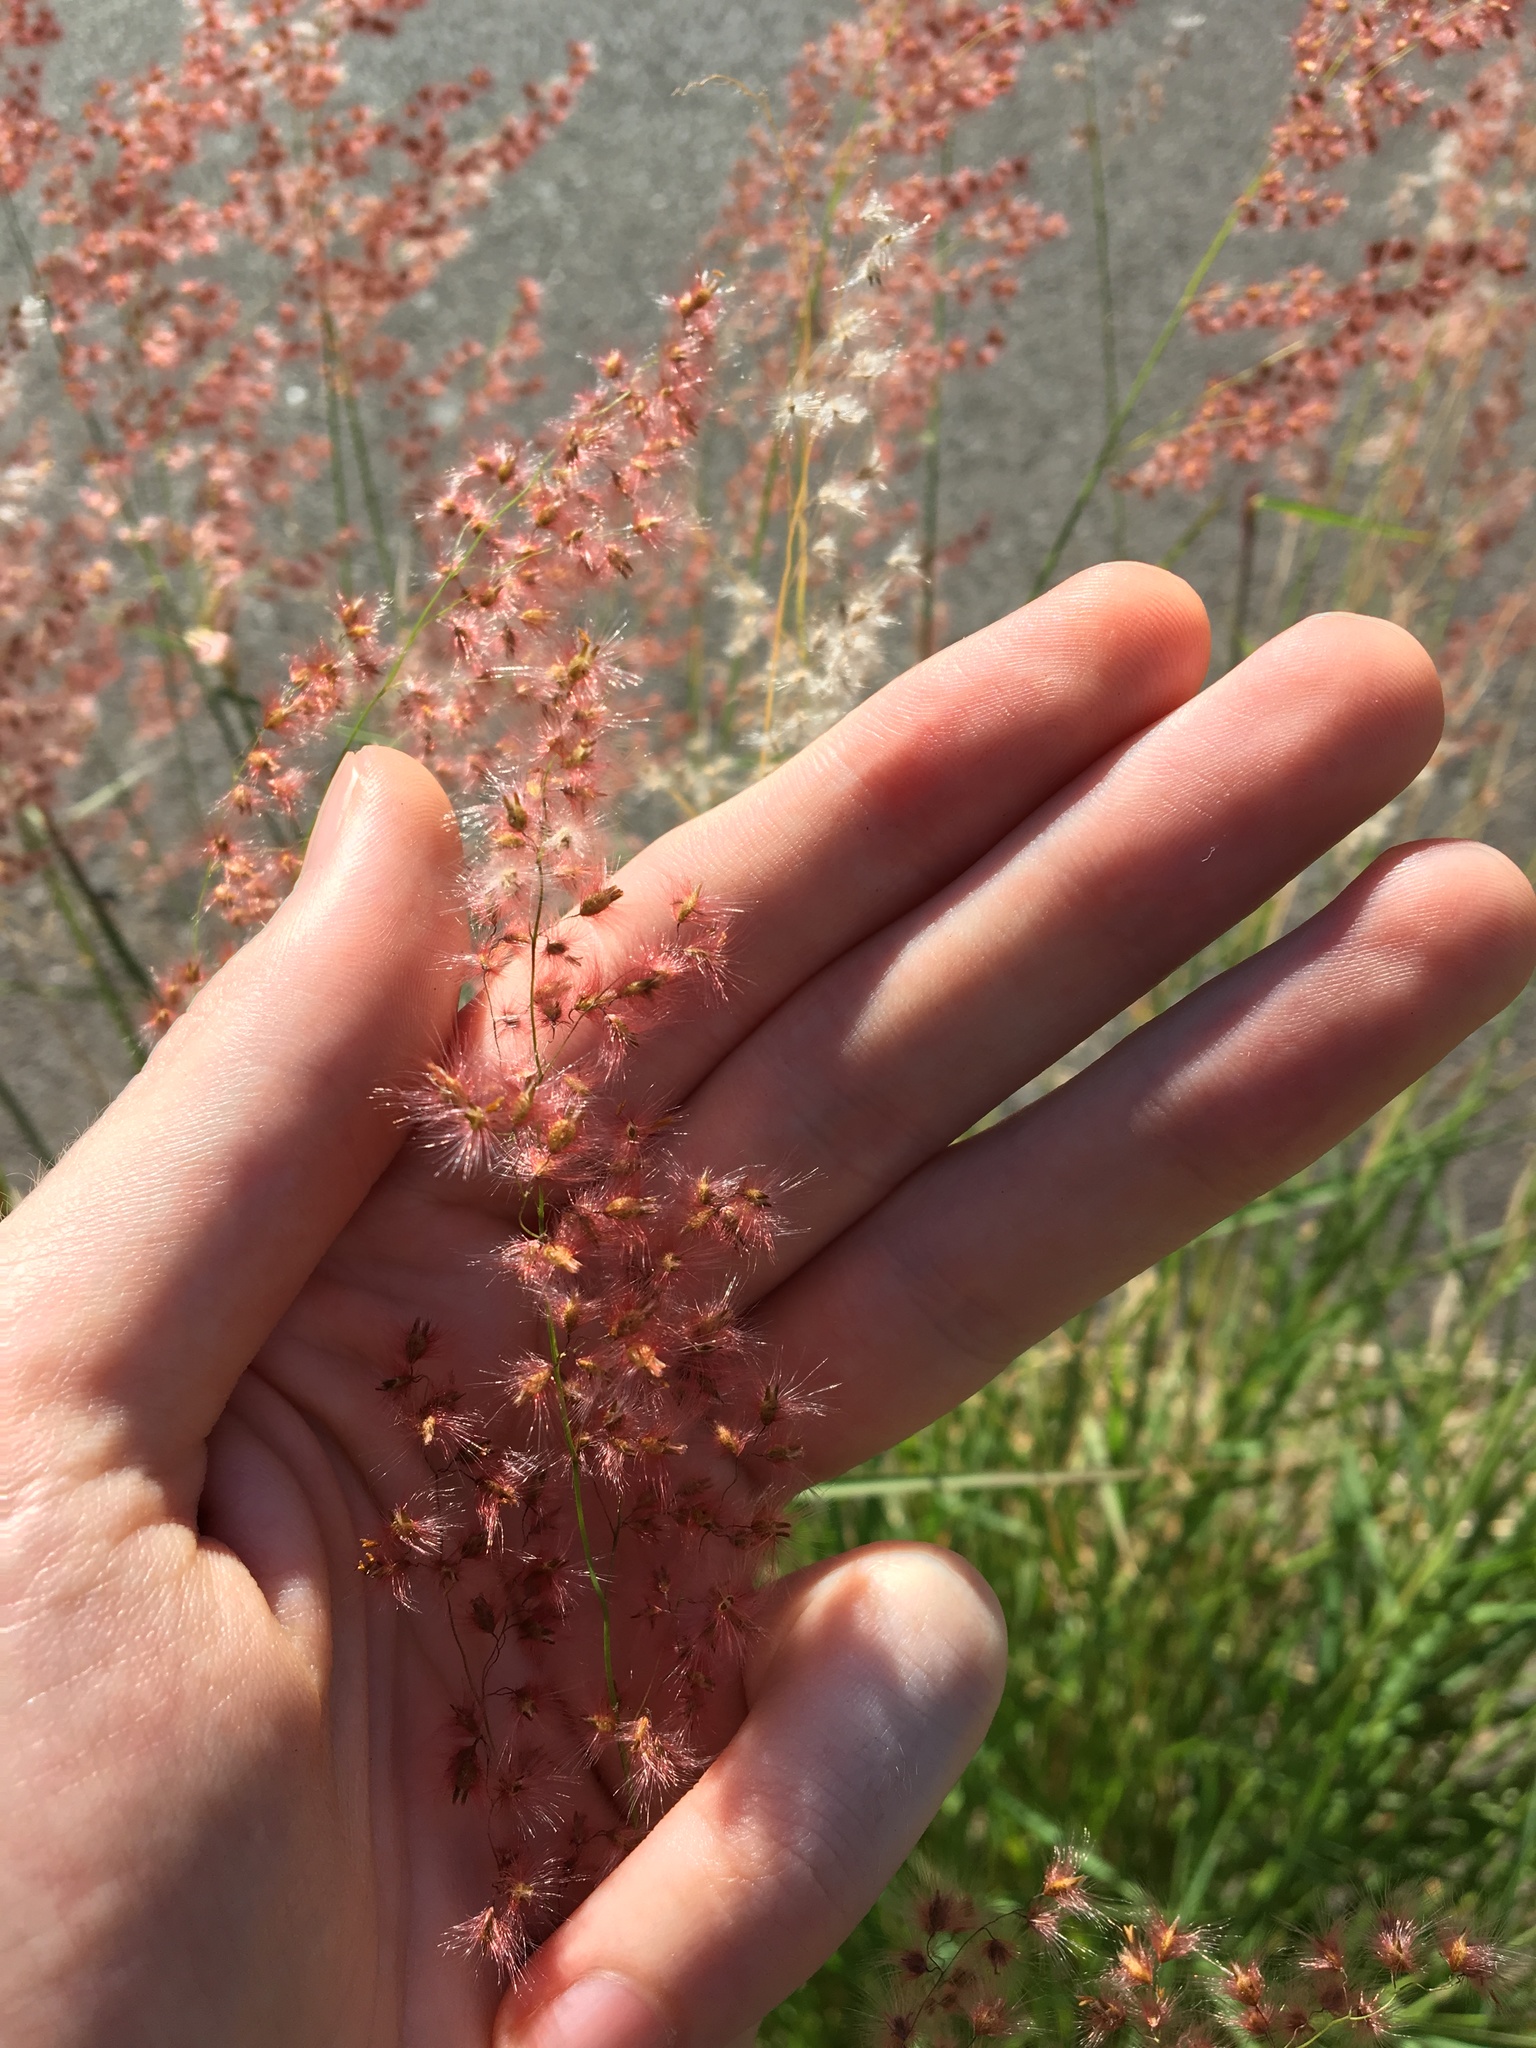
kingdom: Plantae
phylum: Tracheophyta
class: Liliopsida
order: Poales
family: Poaceae
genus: Melinis
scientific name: Melinis repens
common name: Rose natal grass
